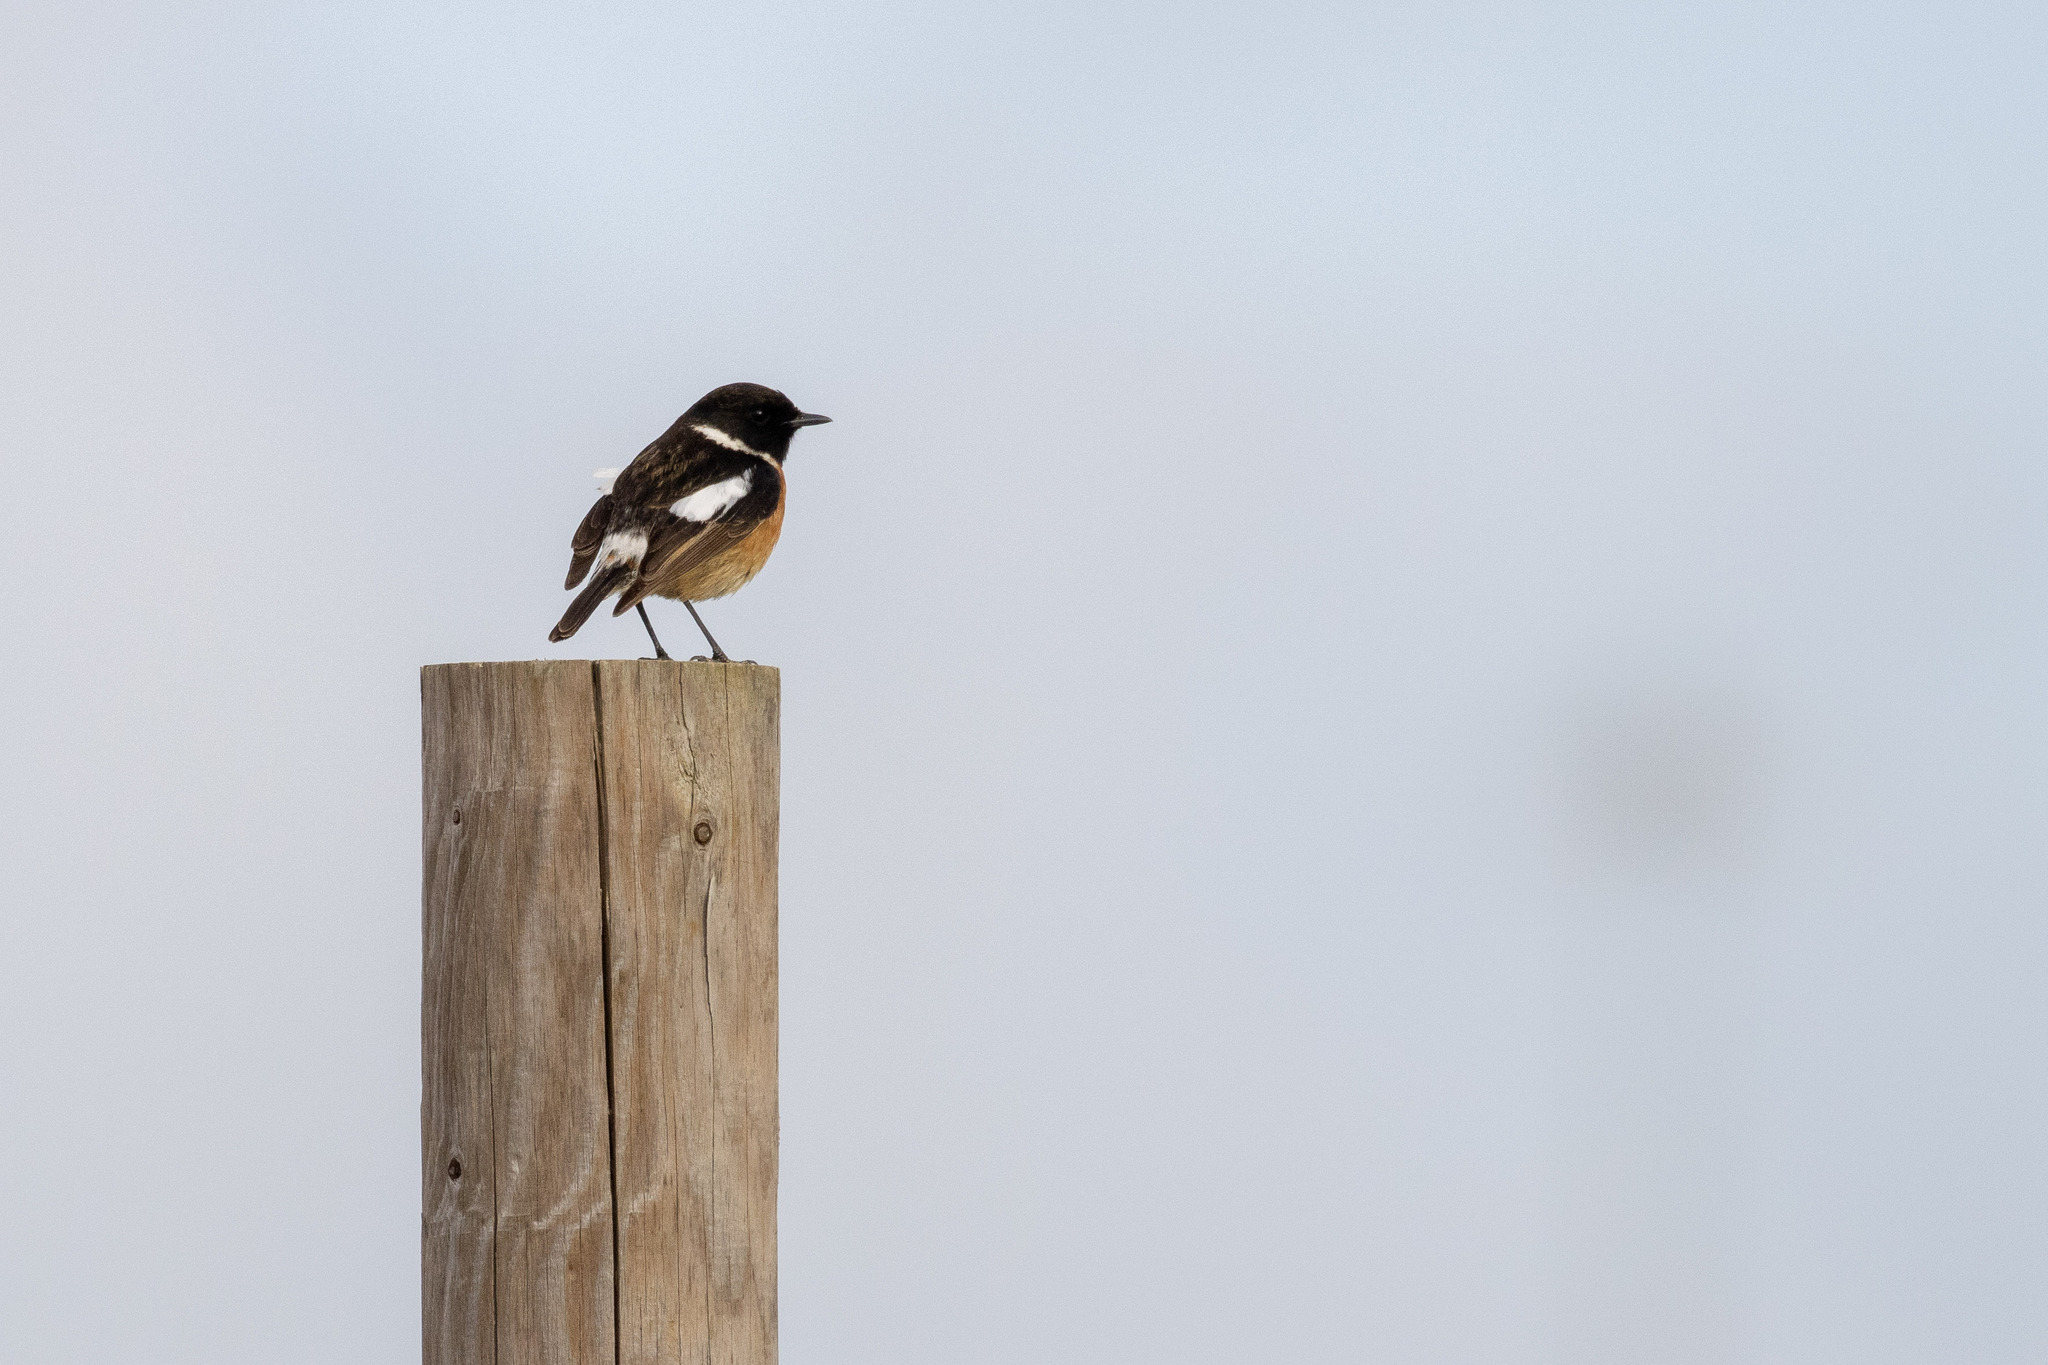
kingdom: Animalia
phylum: Chordata
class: Aves
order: Passeriformes
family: Muscicapidae
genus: Saxicola
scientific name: Saxicola rubicola
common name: European stonechat
